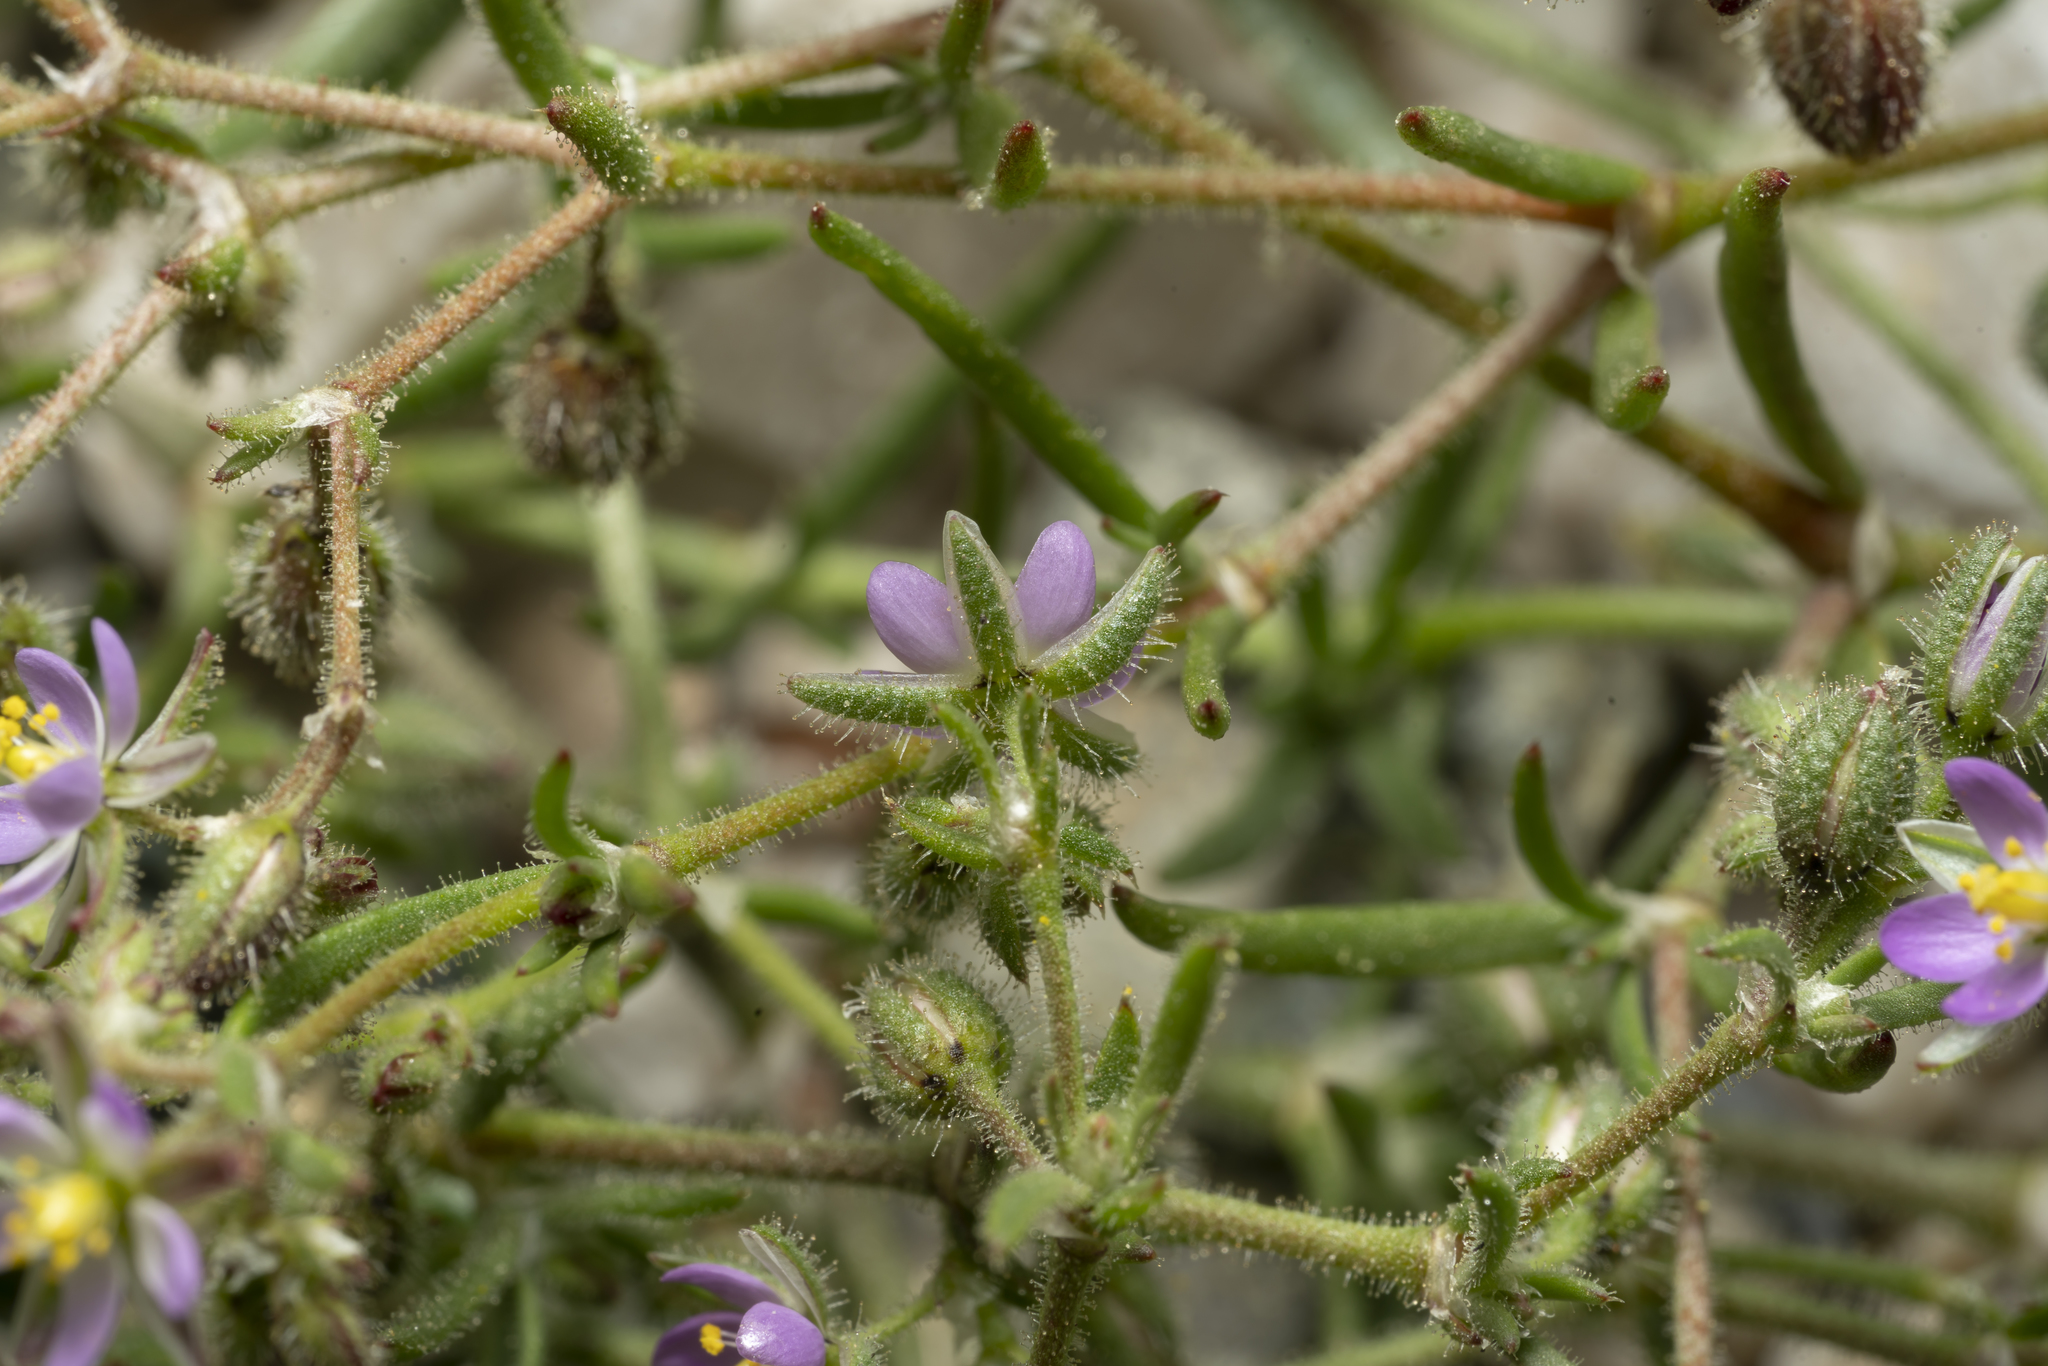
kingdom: Plantae
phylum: Tracheophyta
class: Magnoliopsida
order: Caryophyllales
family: Caryophyllaceae
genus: Spergularia
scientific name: Spergularia bocconei
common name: Greek sea-spurrey
